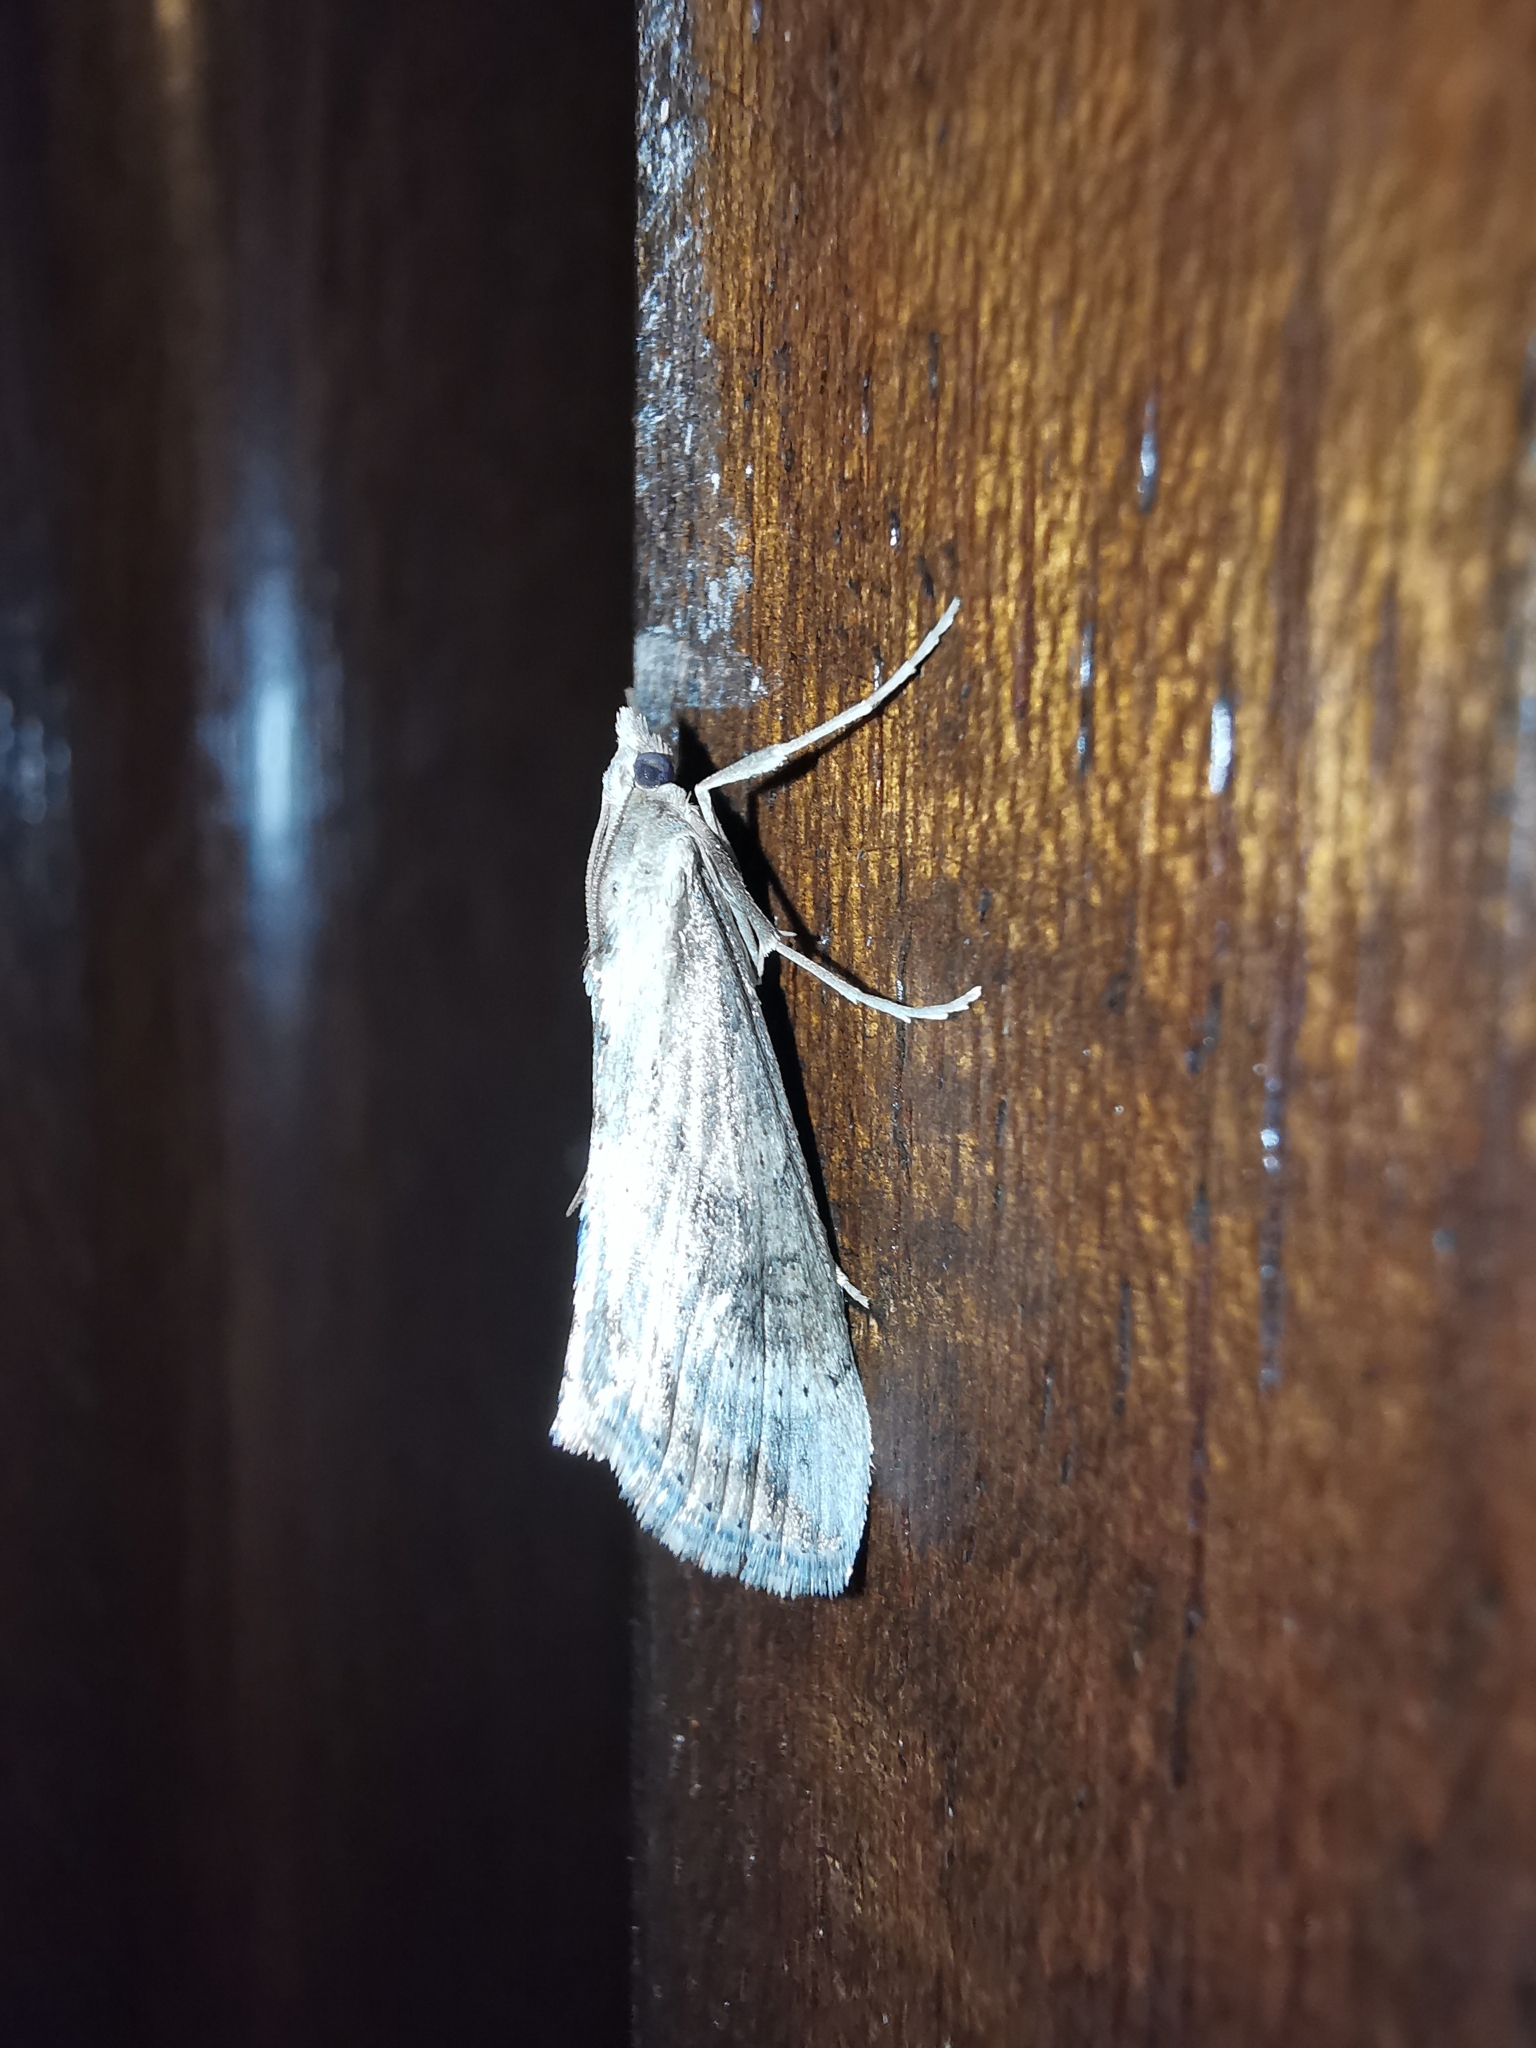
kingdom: Animalia
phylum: Arthropoda
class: Insecta
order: Lepidoptera
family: Crambidae
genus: Evergestis
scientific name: Evergestis isatidalis
